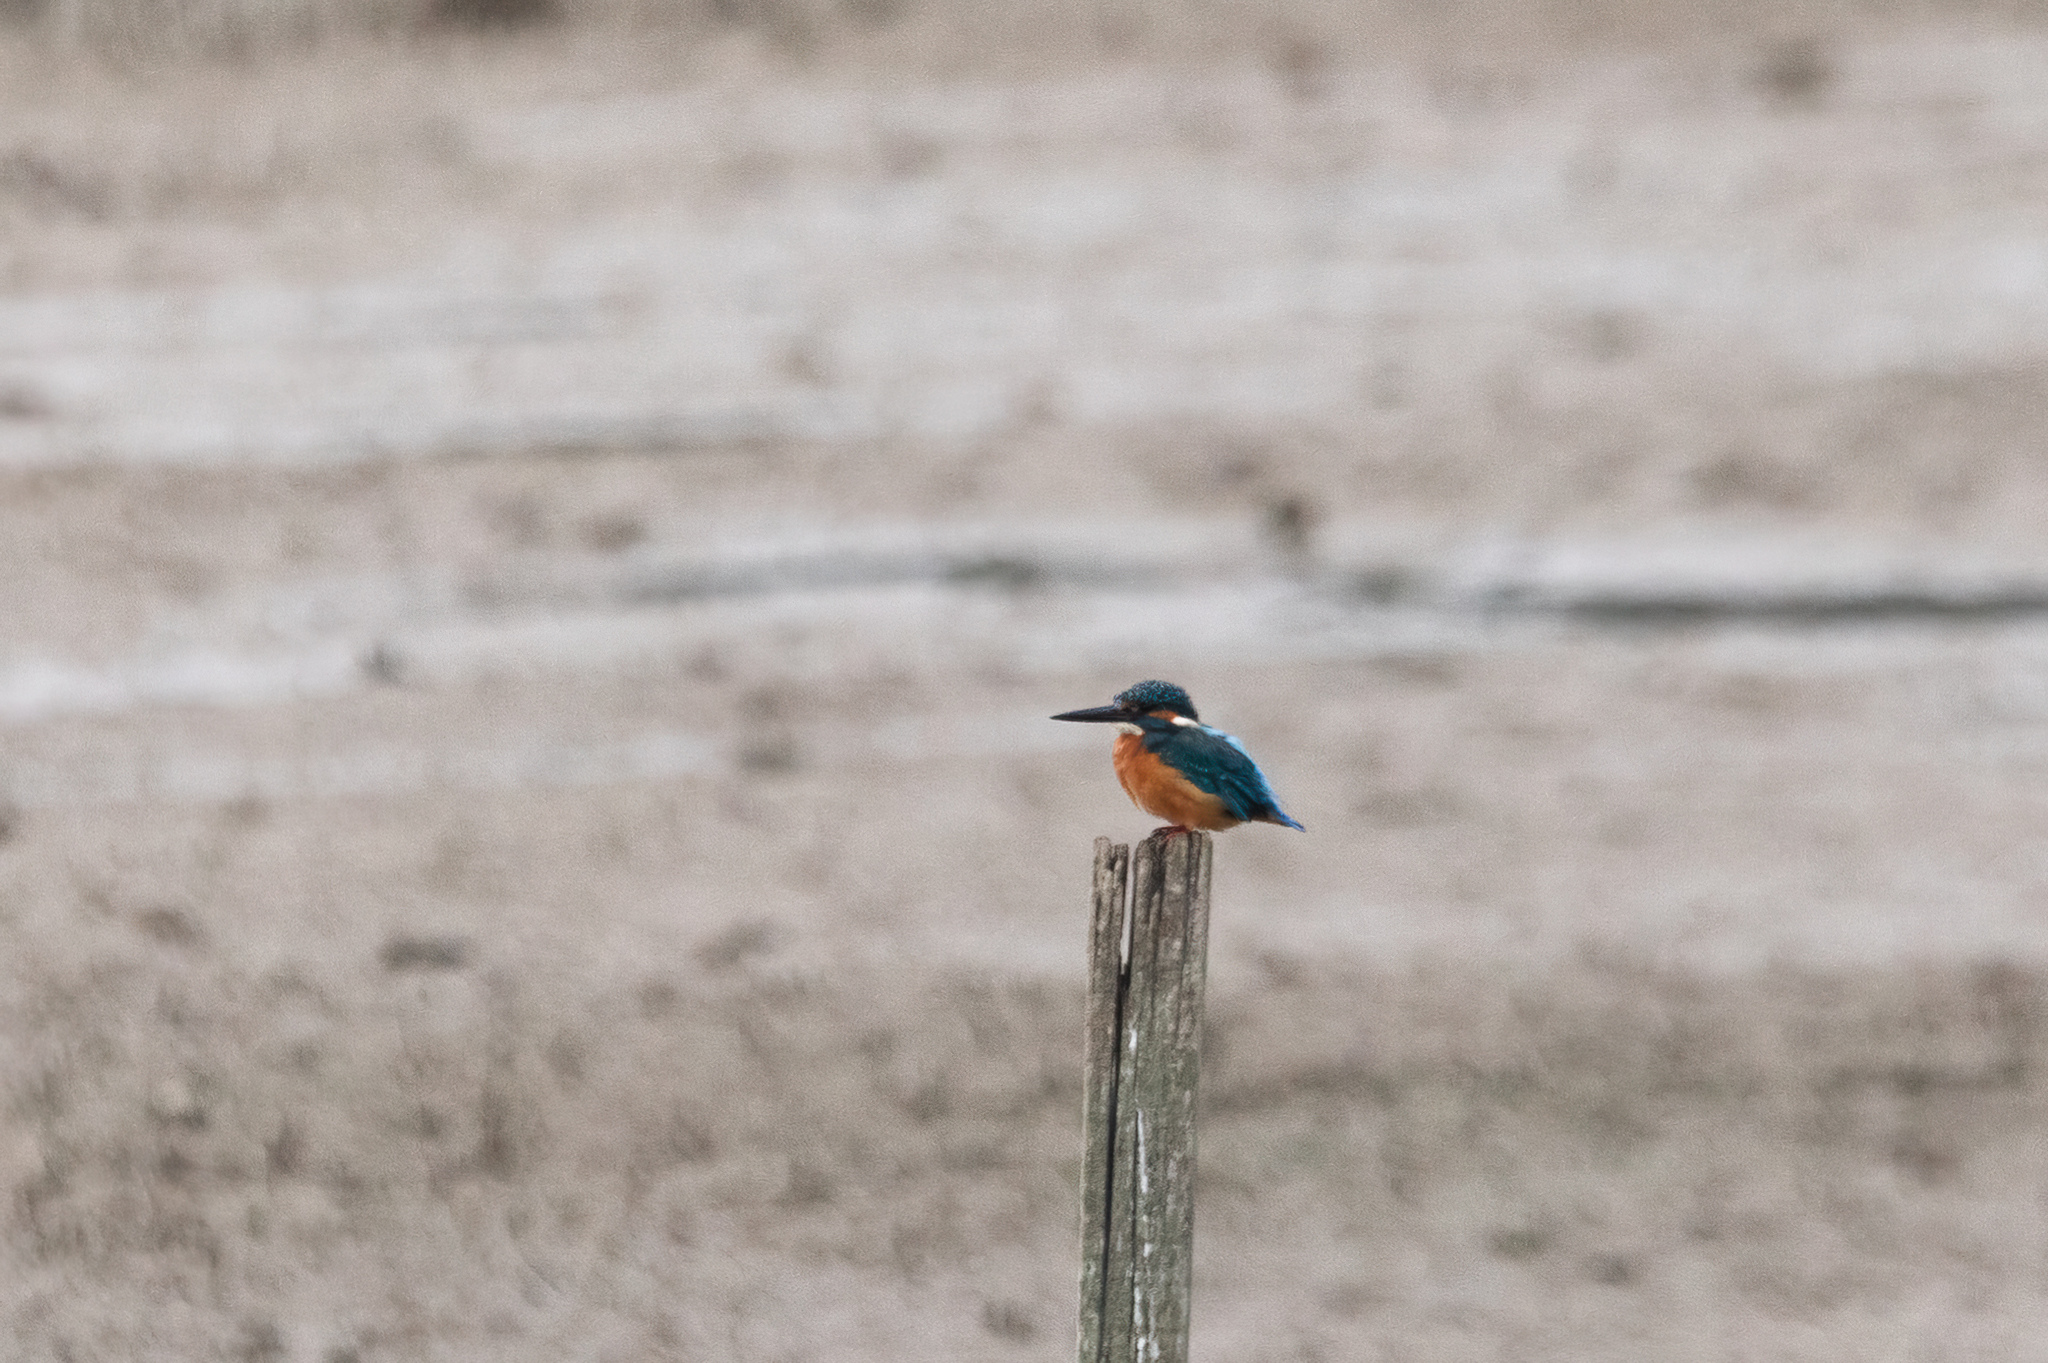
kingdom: Animalia
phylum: Chordata
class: Aves
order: Coraciiformes
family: Alcedinidae
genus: Alcedo
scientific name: Alcedo atthis
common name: Common kingfisher
